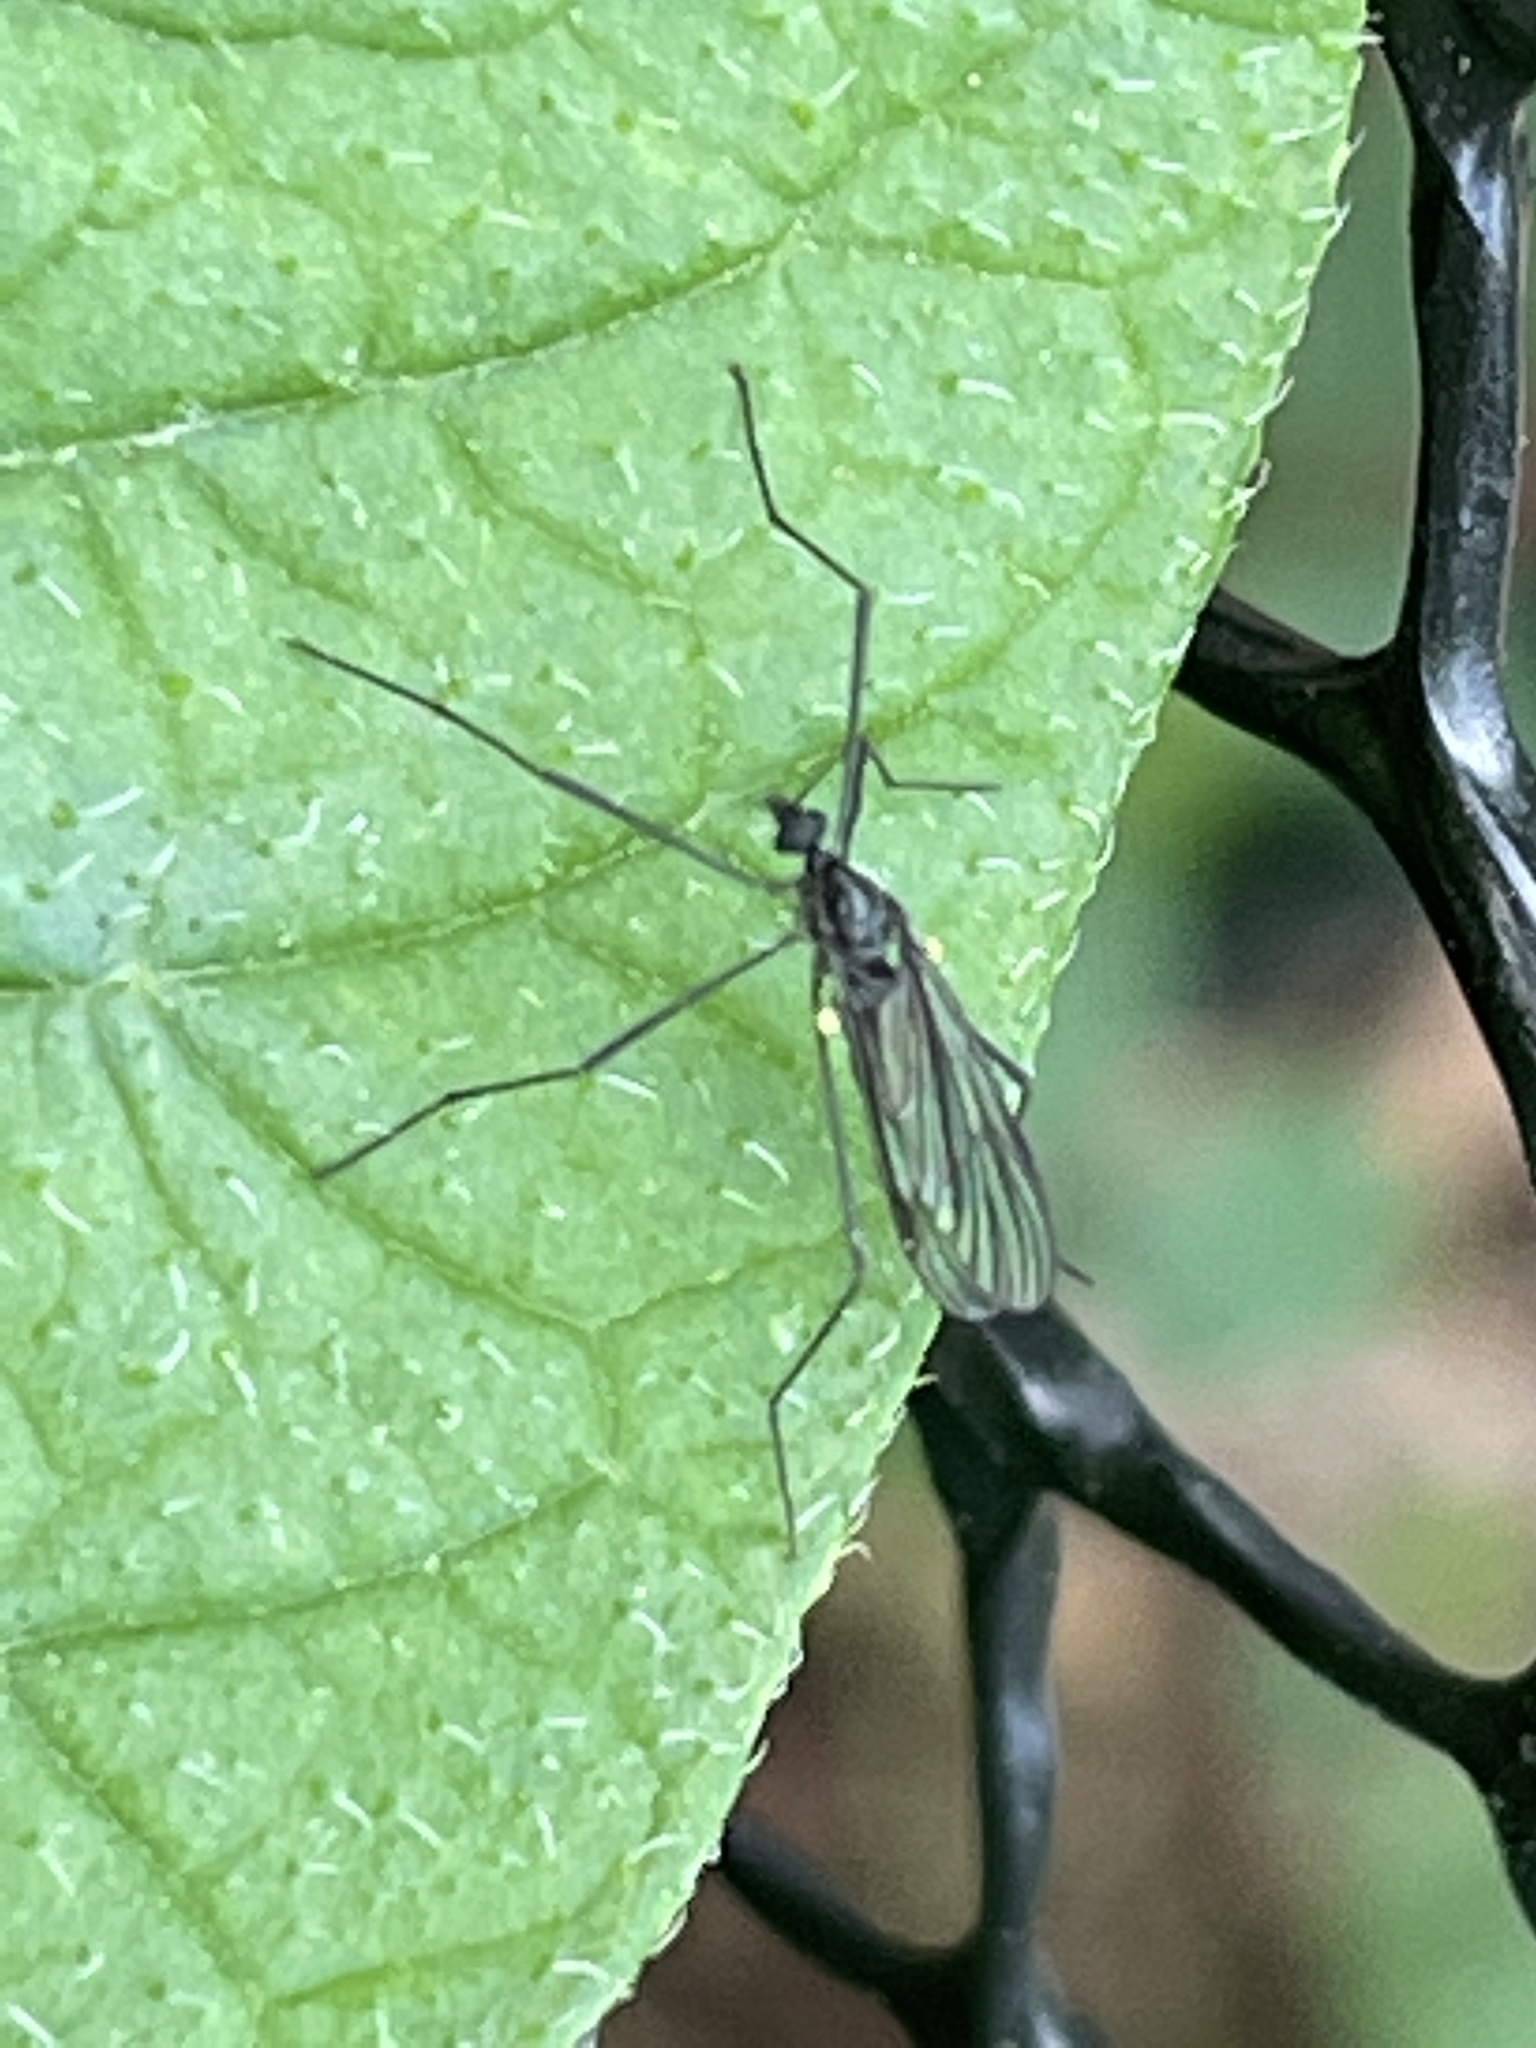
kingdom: Animalia
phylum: Arthropoda
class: Insecta
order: Diptera
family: Limoniidae
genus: Gnophomyia
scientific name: Gnophomyia tristissima
